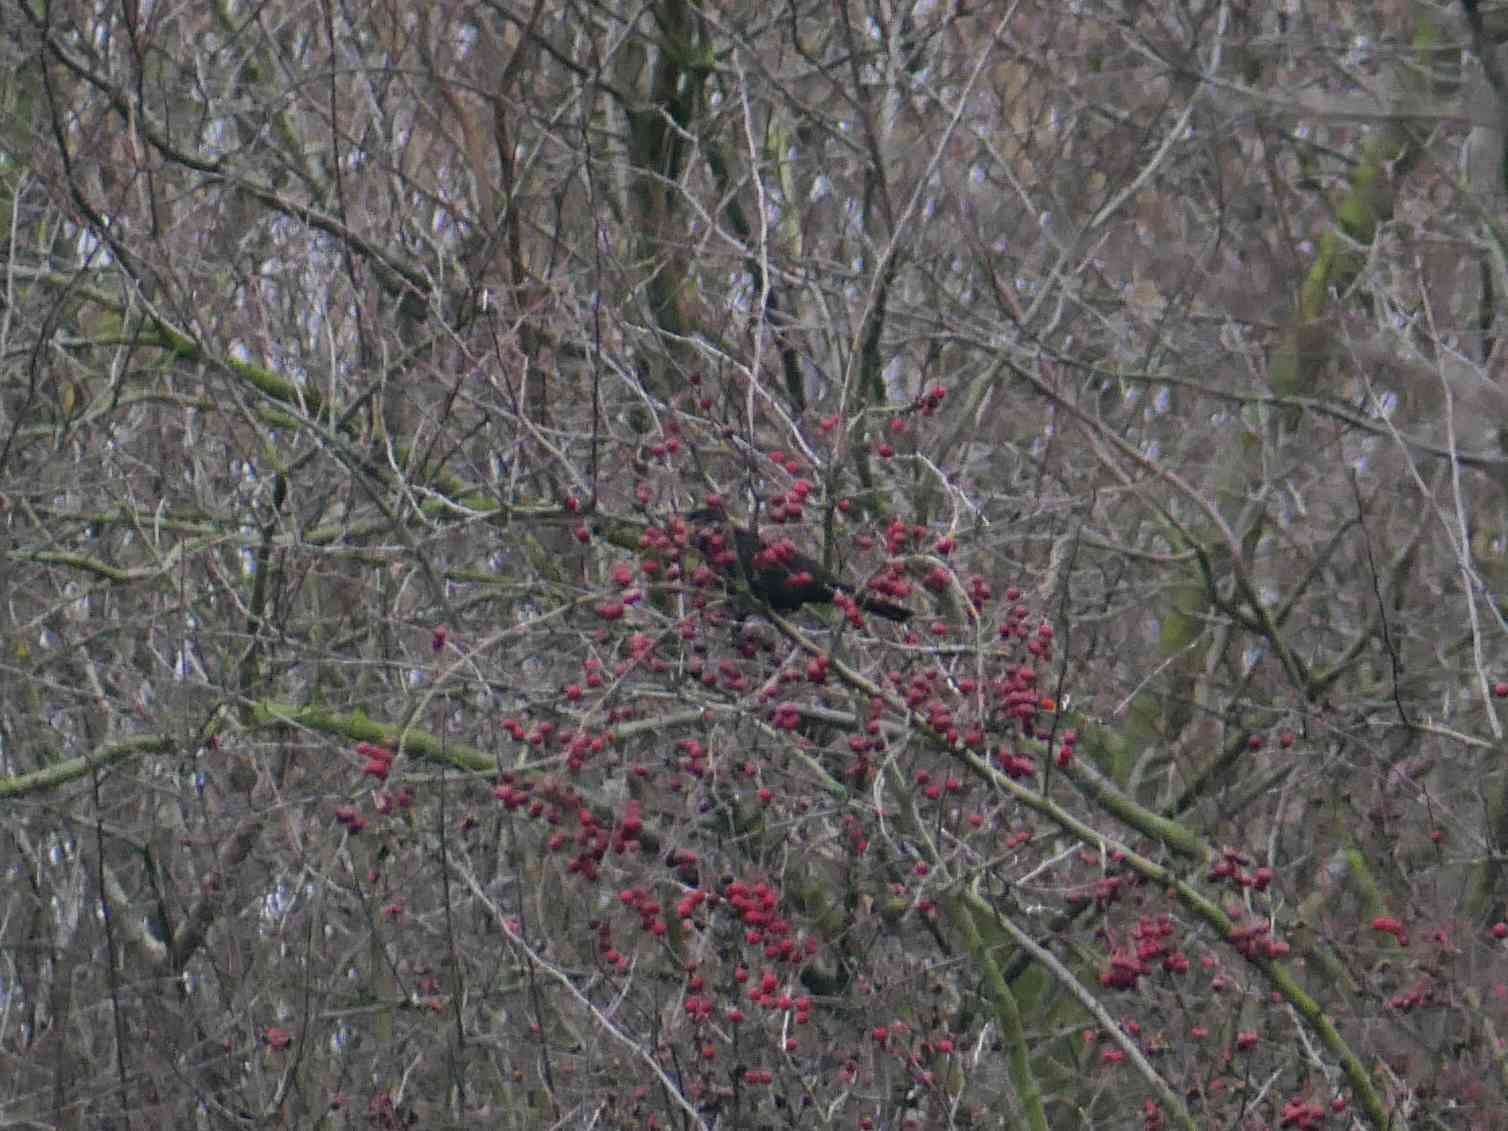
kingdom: Animalia
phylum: Chordata
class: Aves
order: Passeriformes
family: Turdidae
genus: Turdus
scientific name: Turdus merula
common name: Common blackbird
